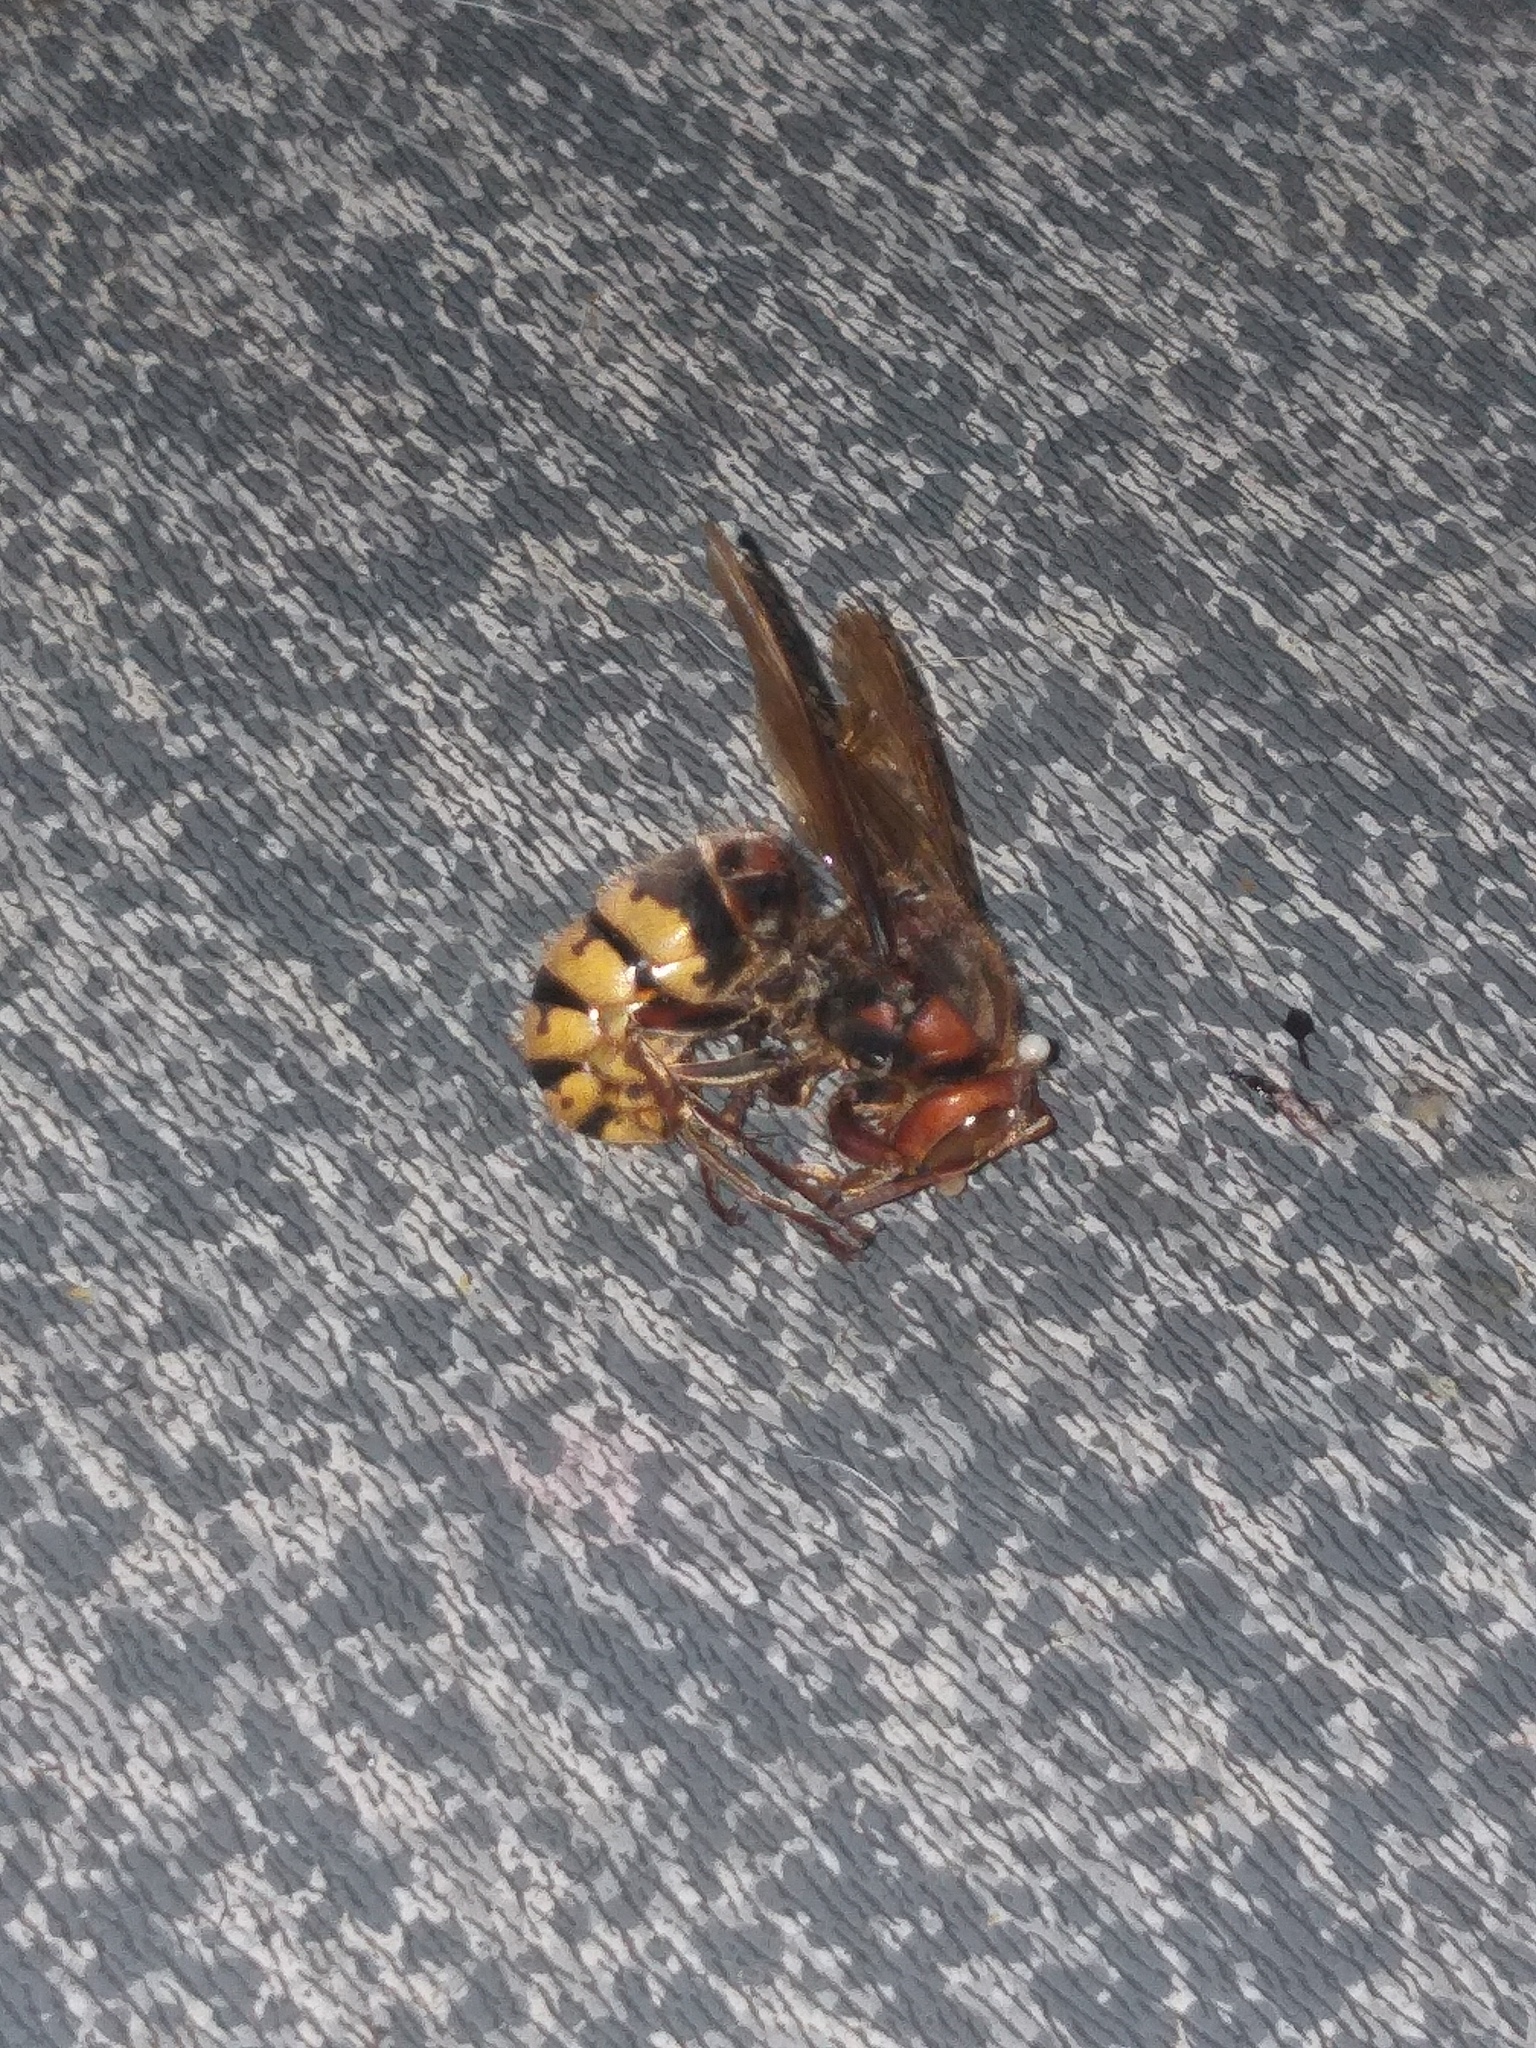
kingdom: Animalia
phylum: Arthropoda
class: Insecta
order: Hymenoptera
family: Vespidae
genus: Vespa
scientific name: Vespa crabro
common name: Hornet
